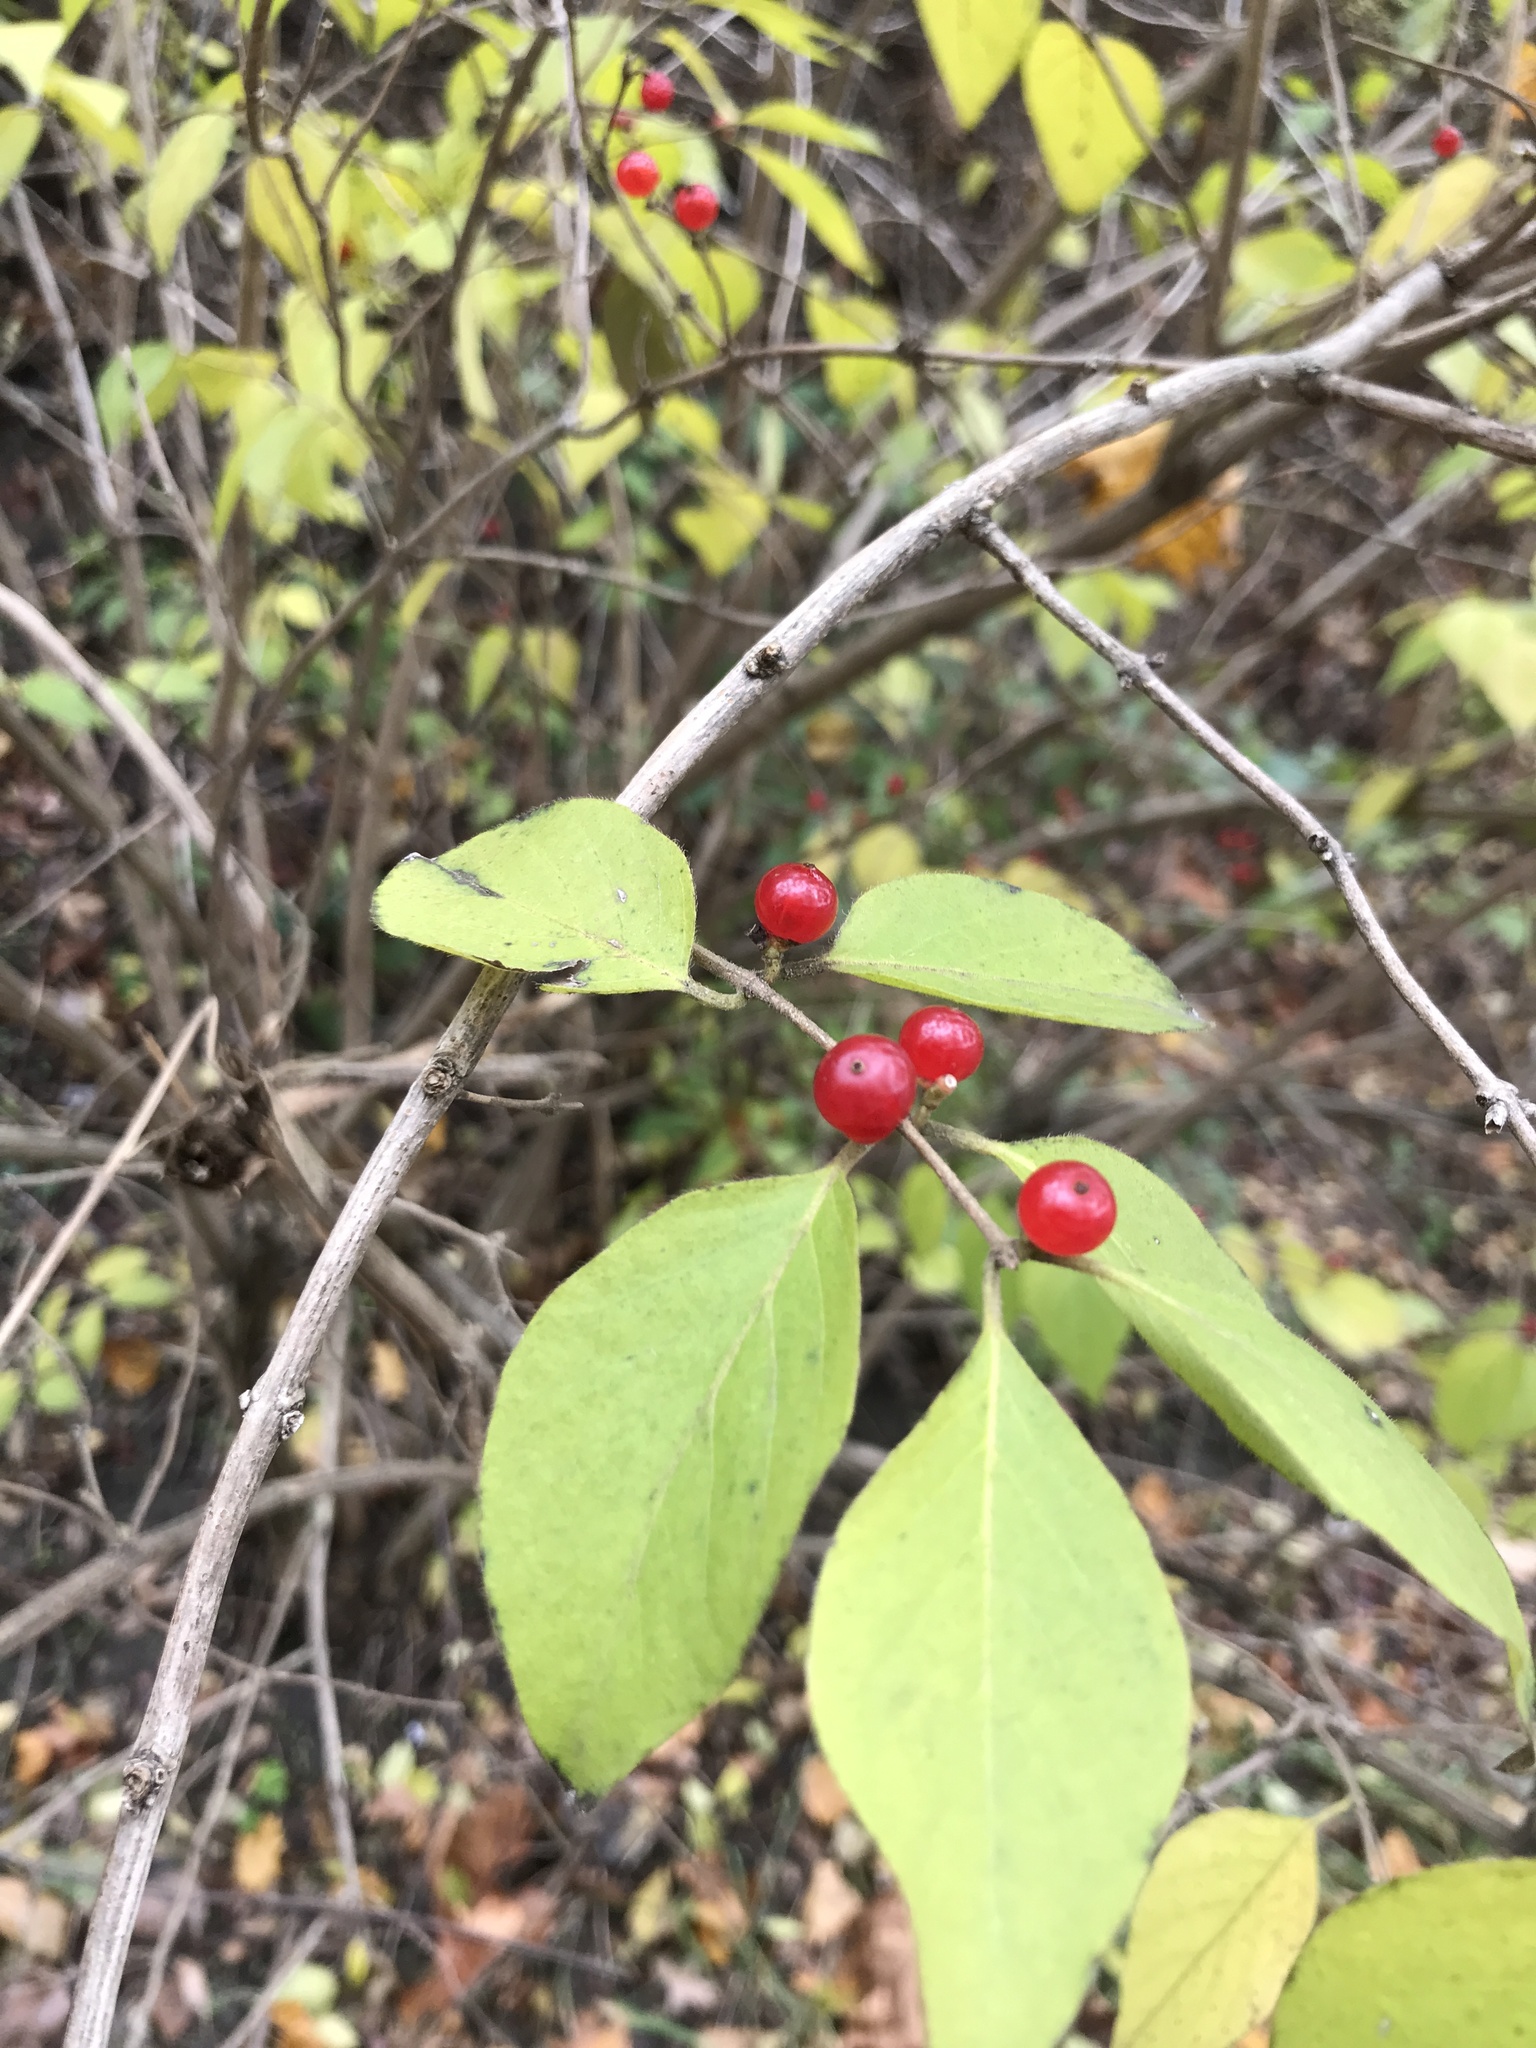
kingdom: Plantae
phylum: Tracheophyta
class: Magnoliopsida
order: Dipsacales
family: Caprifoliaceae
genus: Lonicera
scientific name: Lonicera maackii
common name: Amur honeysuckle
